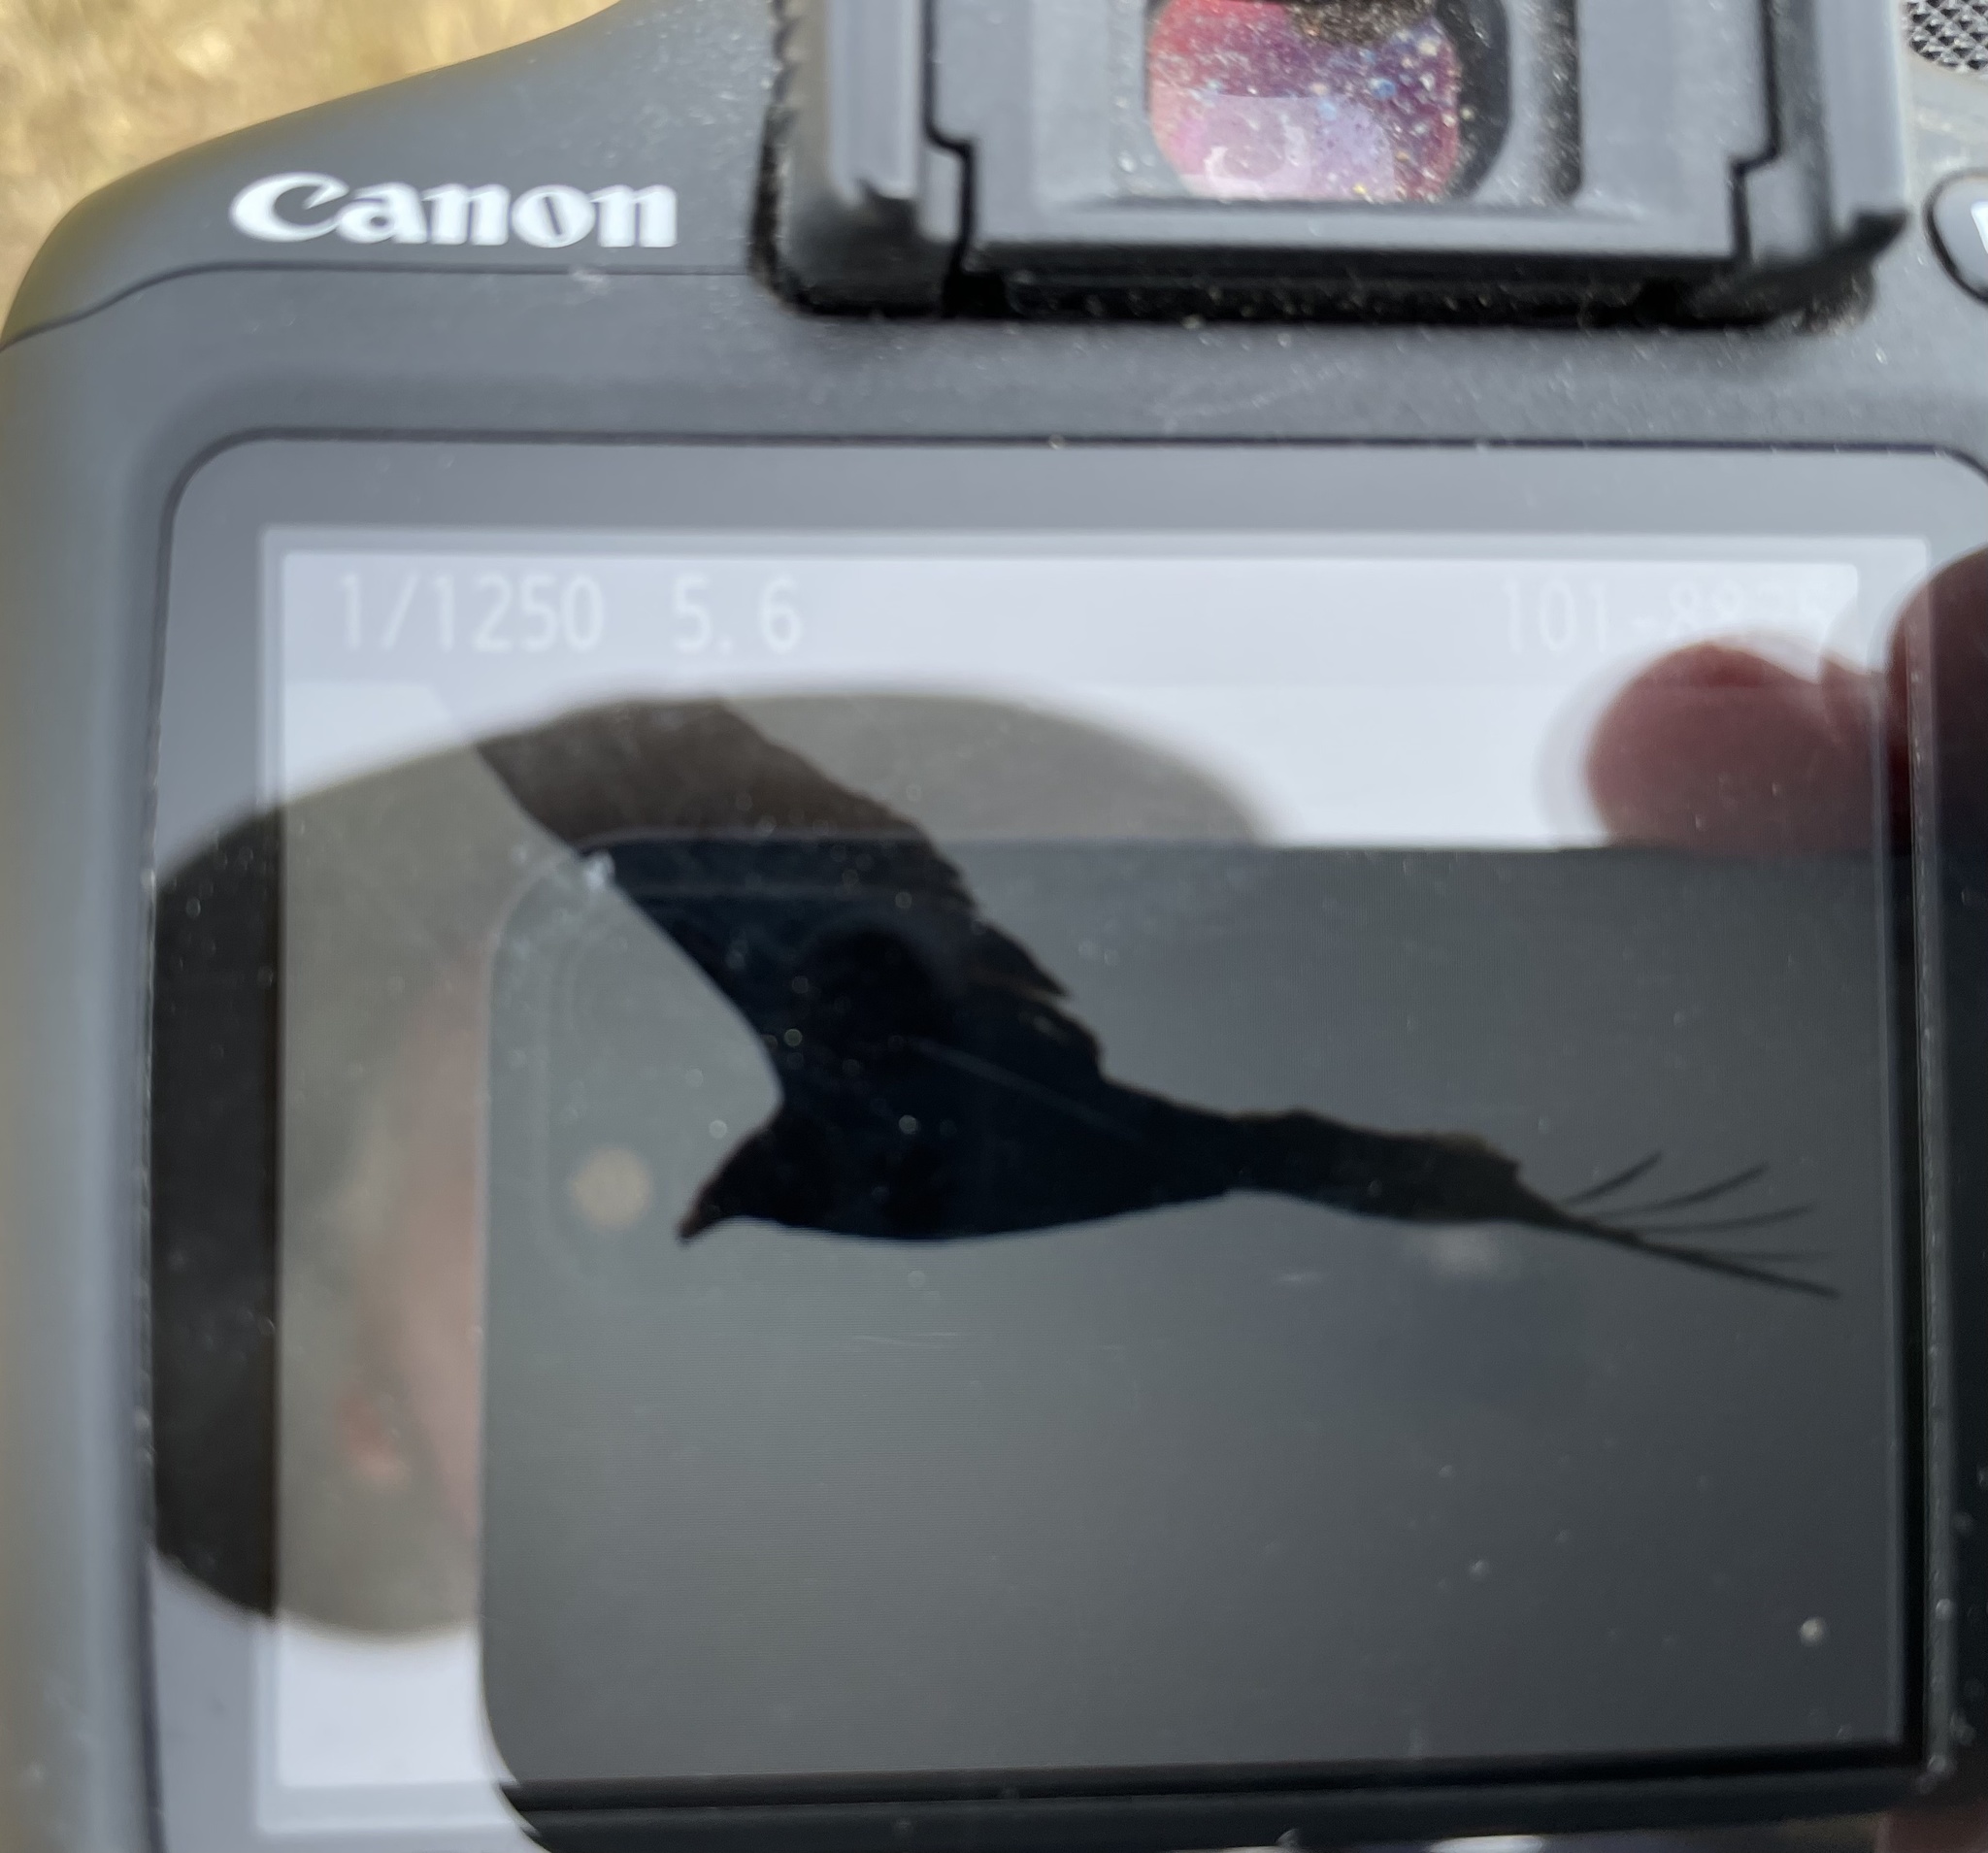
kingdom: Animalia
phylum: Chordata
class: Aves
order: Accipitriformes
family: Cathartidae
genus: Cathartes
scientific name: Cathartes aura
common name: Turkey vulture
